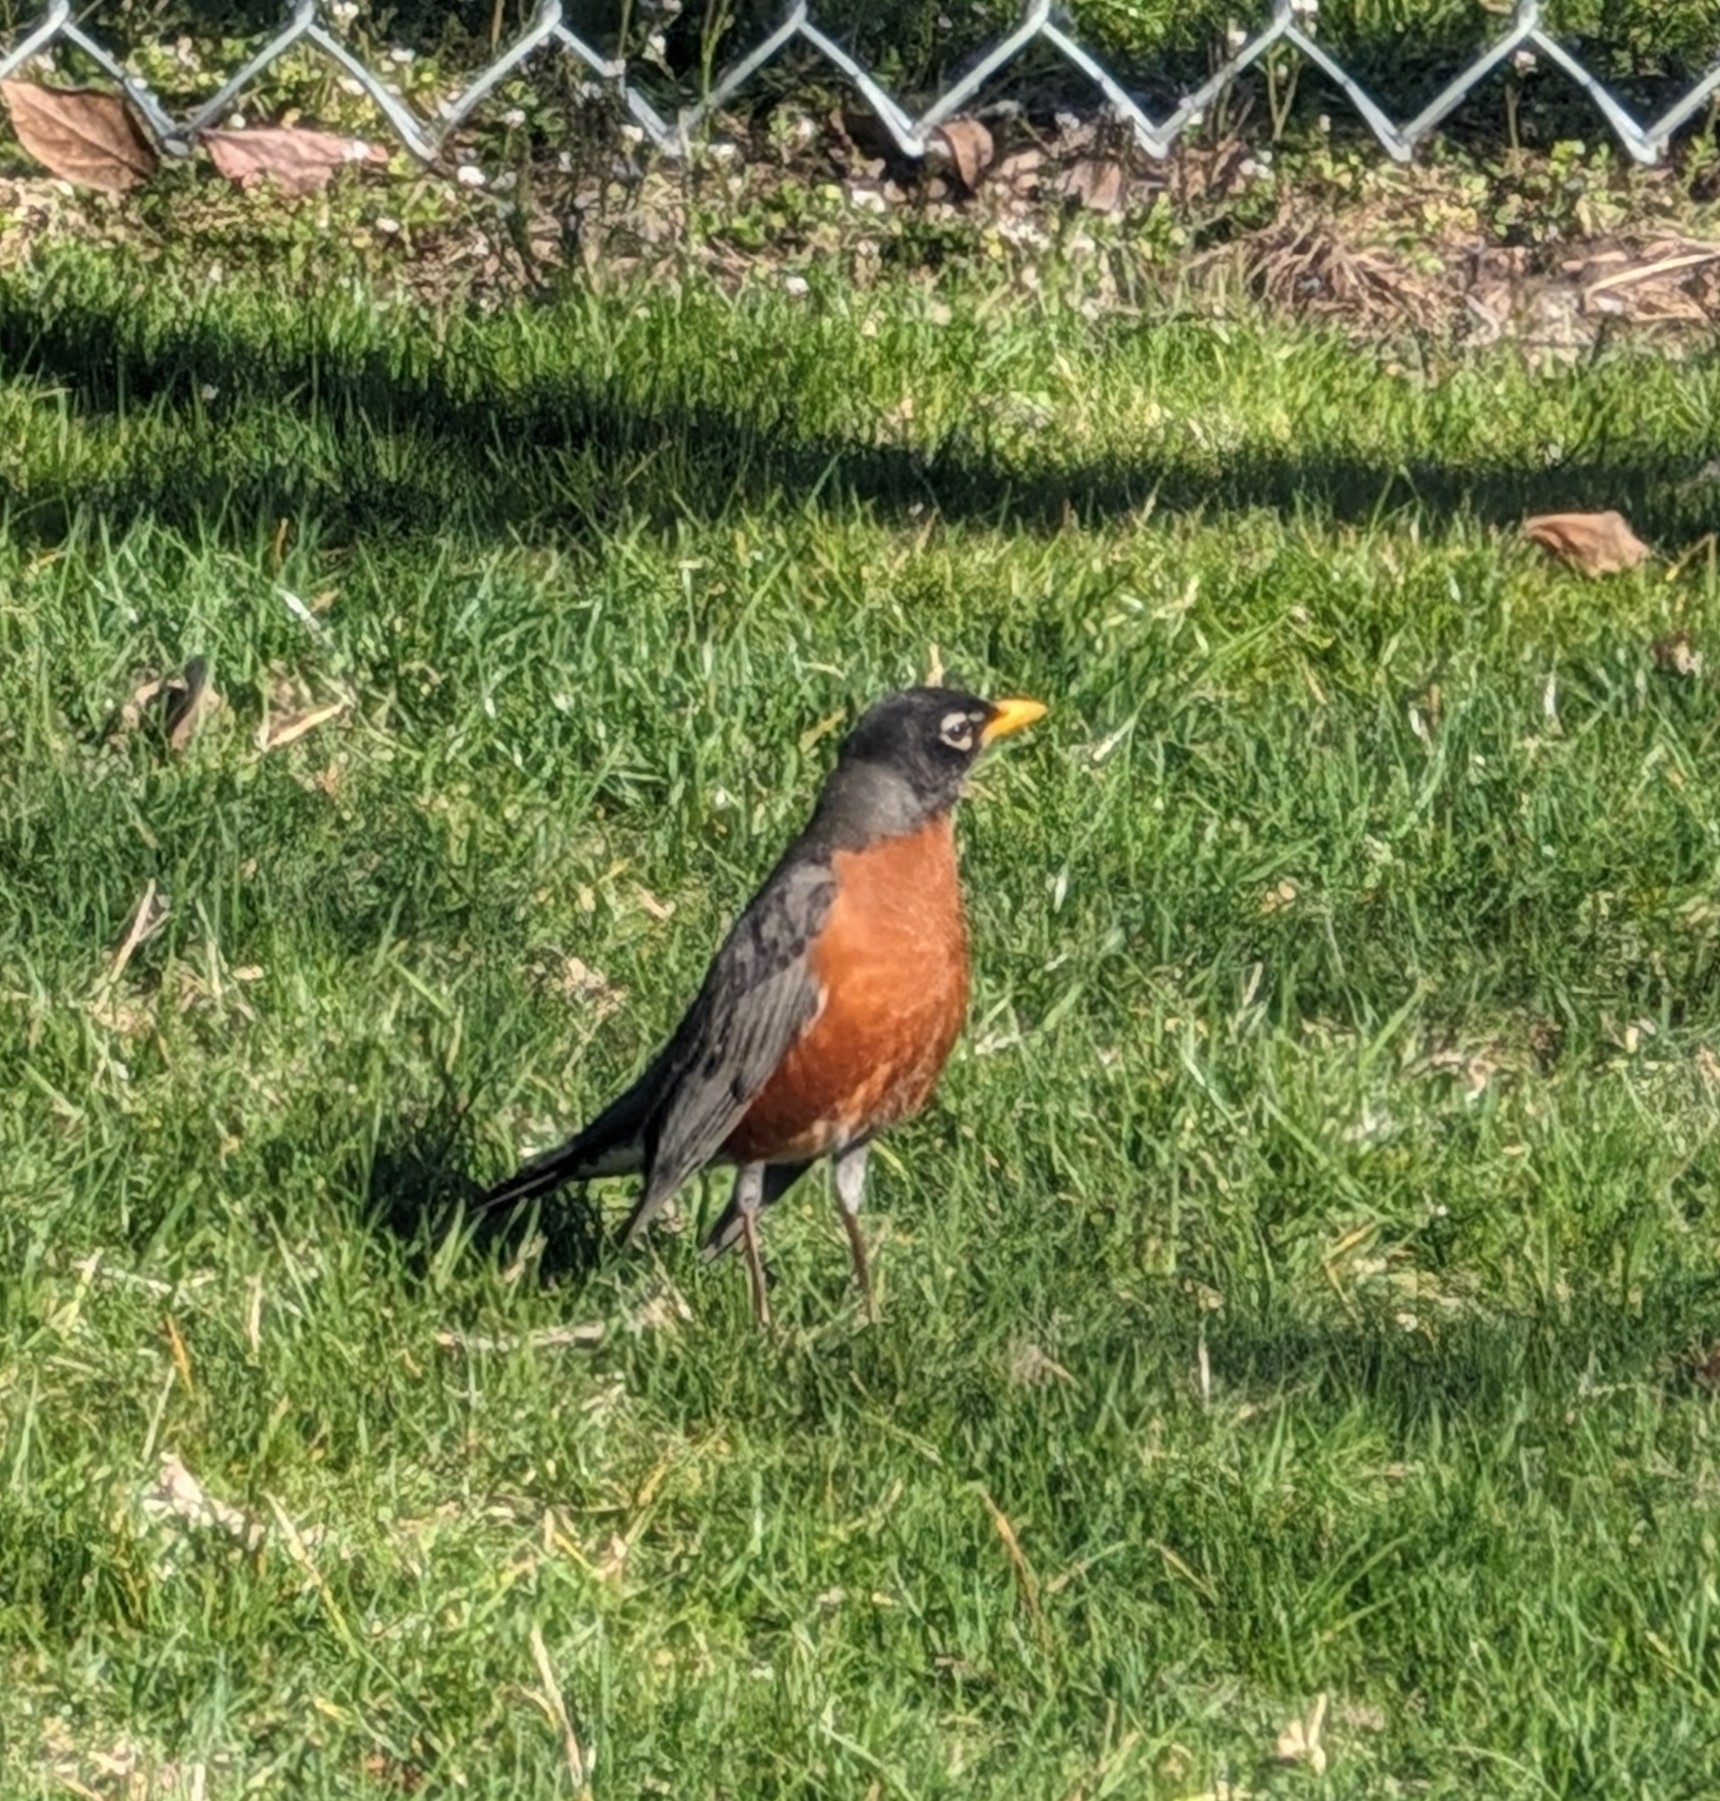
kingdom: Animalia
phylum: Chordata
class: Aves
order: Passeriformes
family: Turdidae
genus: Turdus
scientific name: Turdus migratorius
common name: American robin
